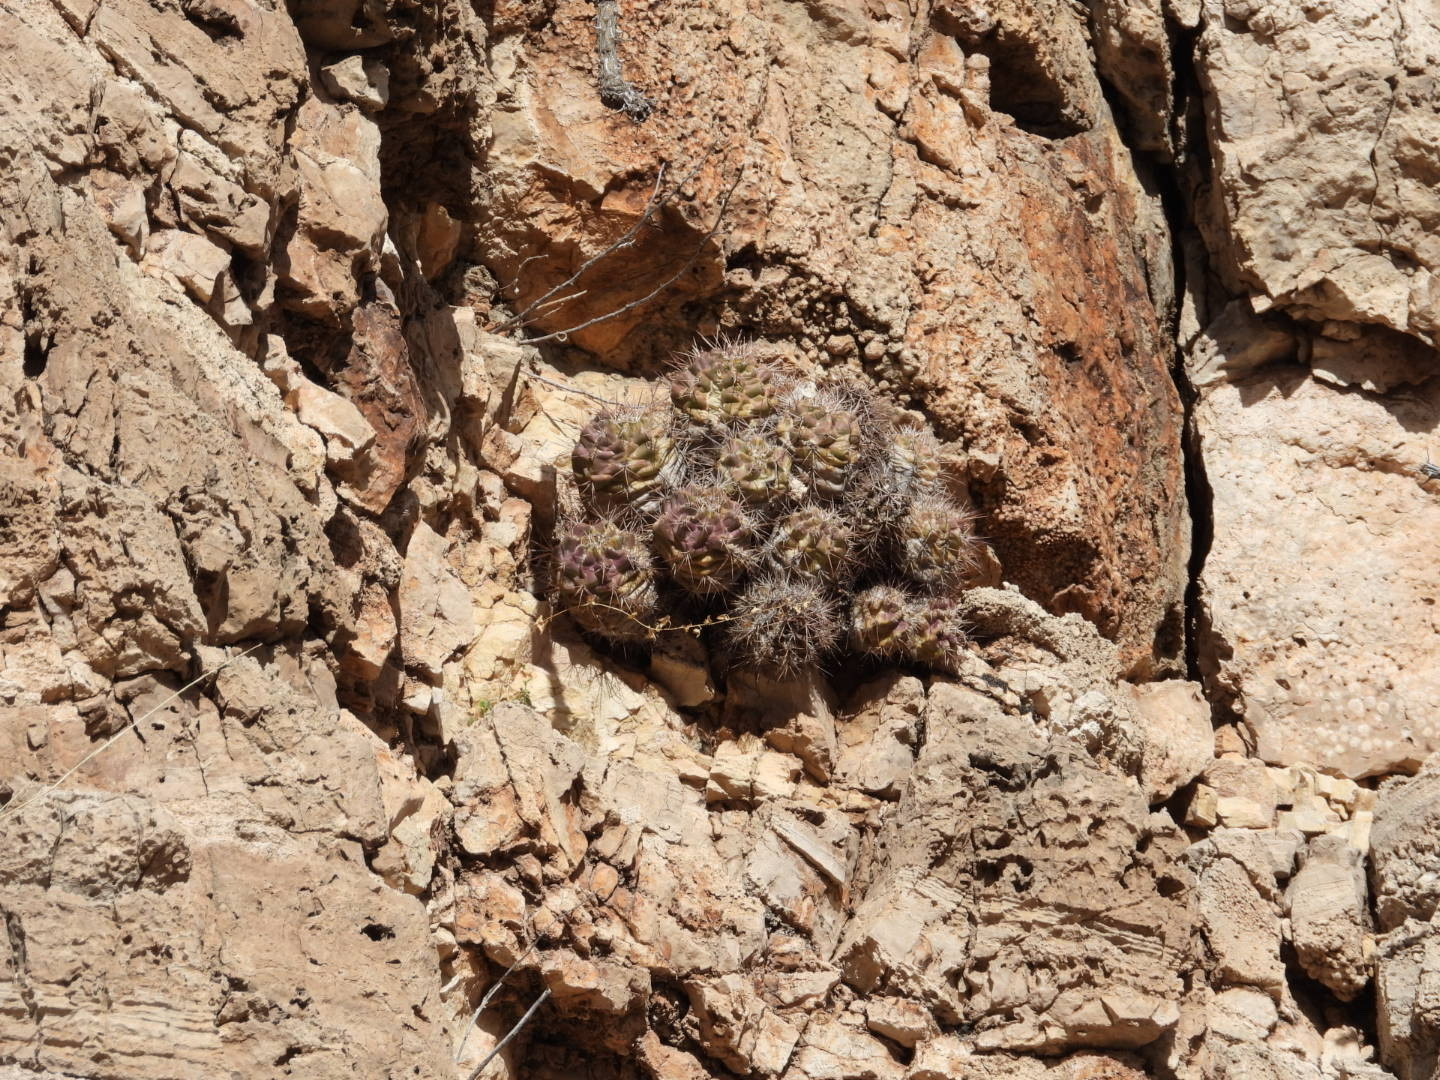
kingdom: Plantae
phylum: Tracheophyta
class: Magnoliopsida
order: Caryophyllales
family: Cactaceae
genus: Echinocereus
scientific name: Echinocereus coccineus
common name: Scarlet hedgehog cactus
